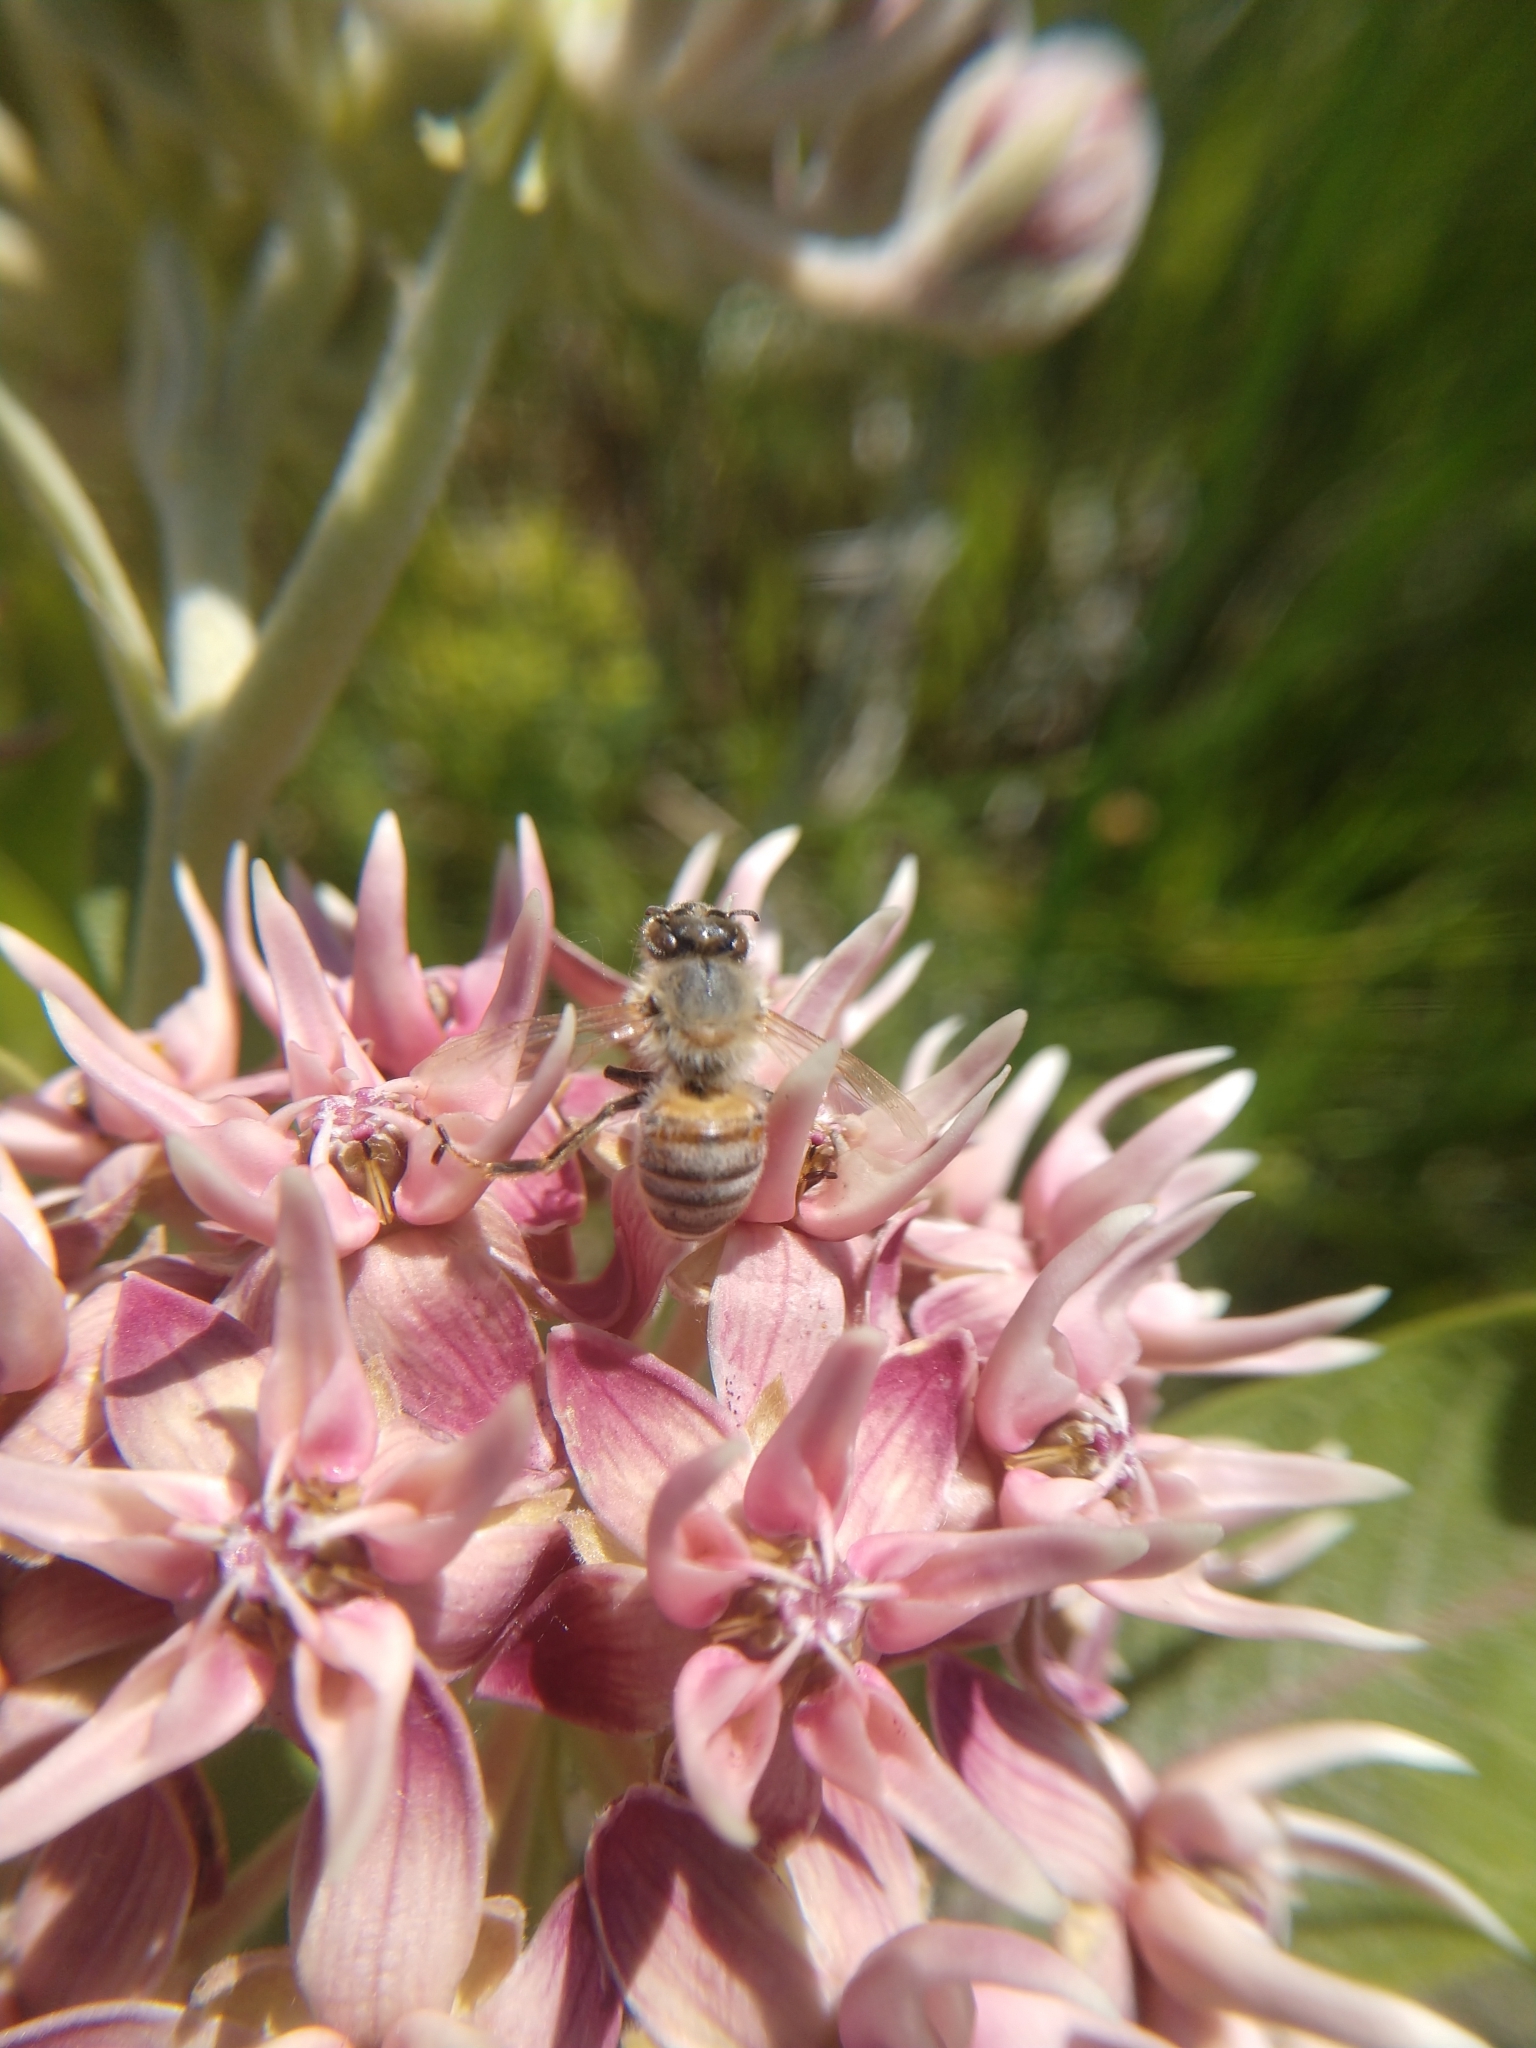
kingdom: Animalia
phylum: Arthropoda
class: Insecta
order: Hymenoptera
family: Apidae
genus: Apis
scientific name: Apis mellifera
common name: Honey bee
